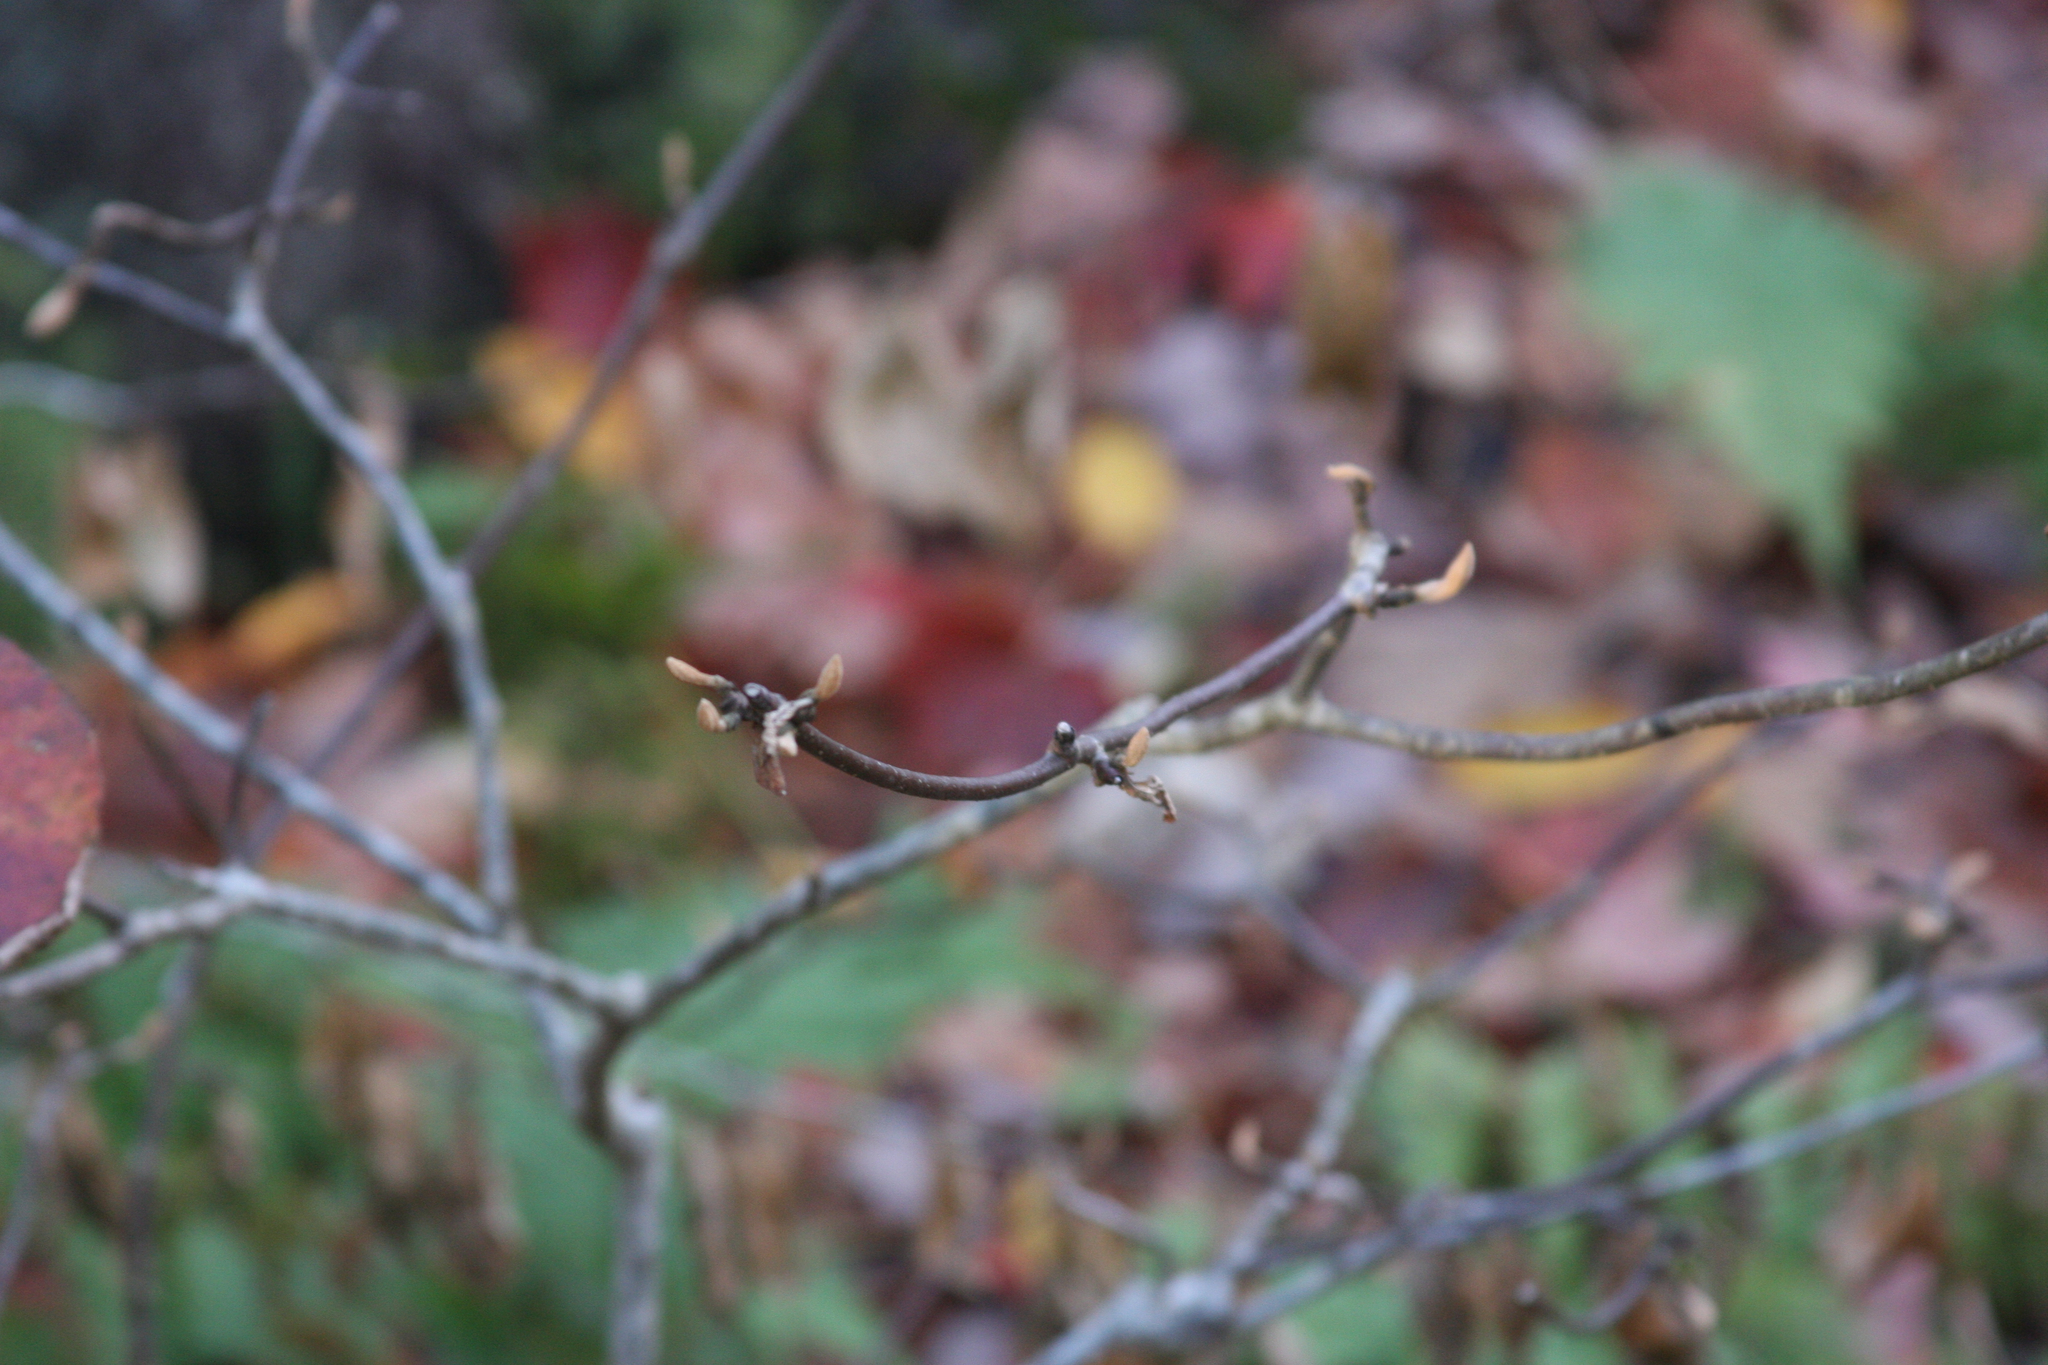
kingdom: Plantae
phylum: Tracheophyta
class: Magnoliopsida
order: Dipsacales
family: Viburnaceae
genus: Viburnum
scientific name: Viburnum lantanoides
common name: Hobblebush
